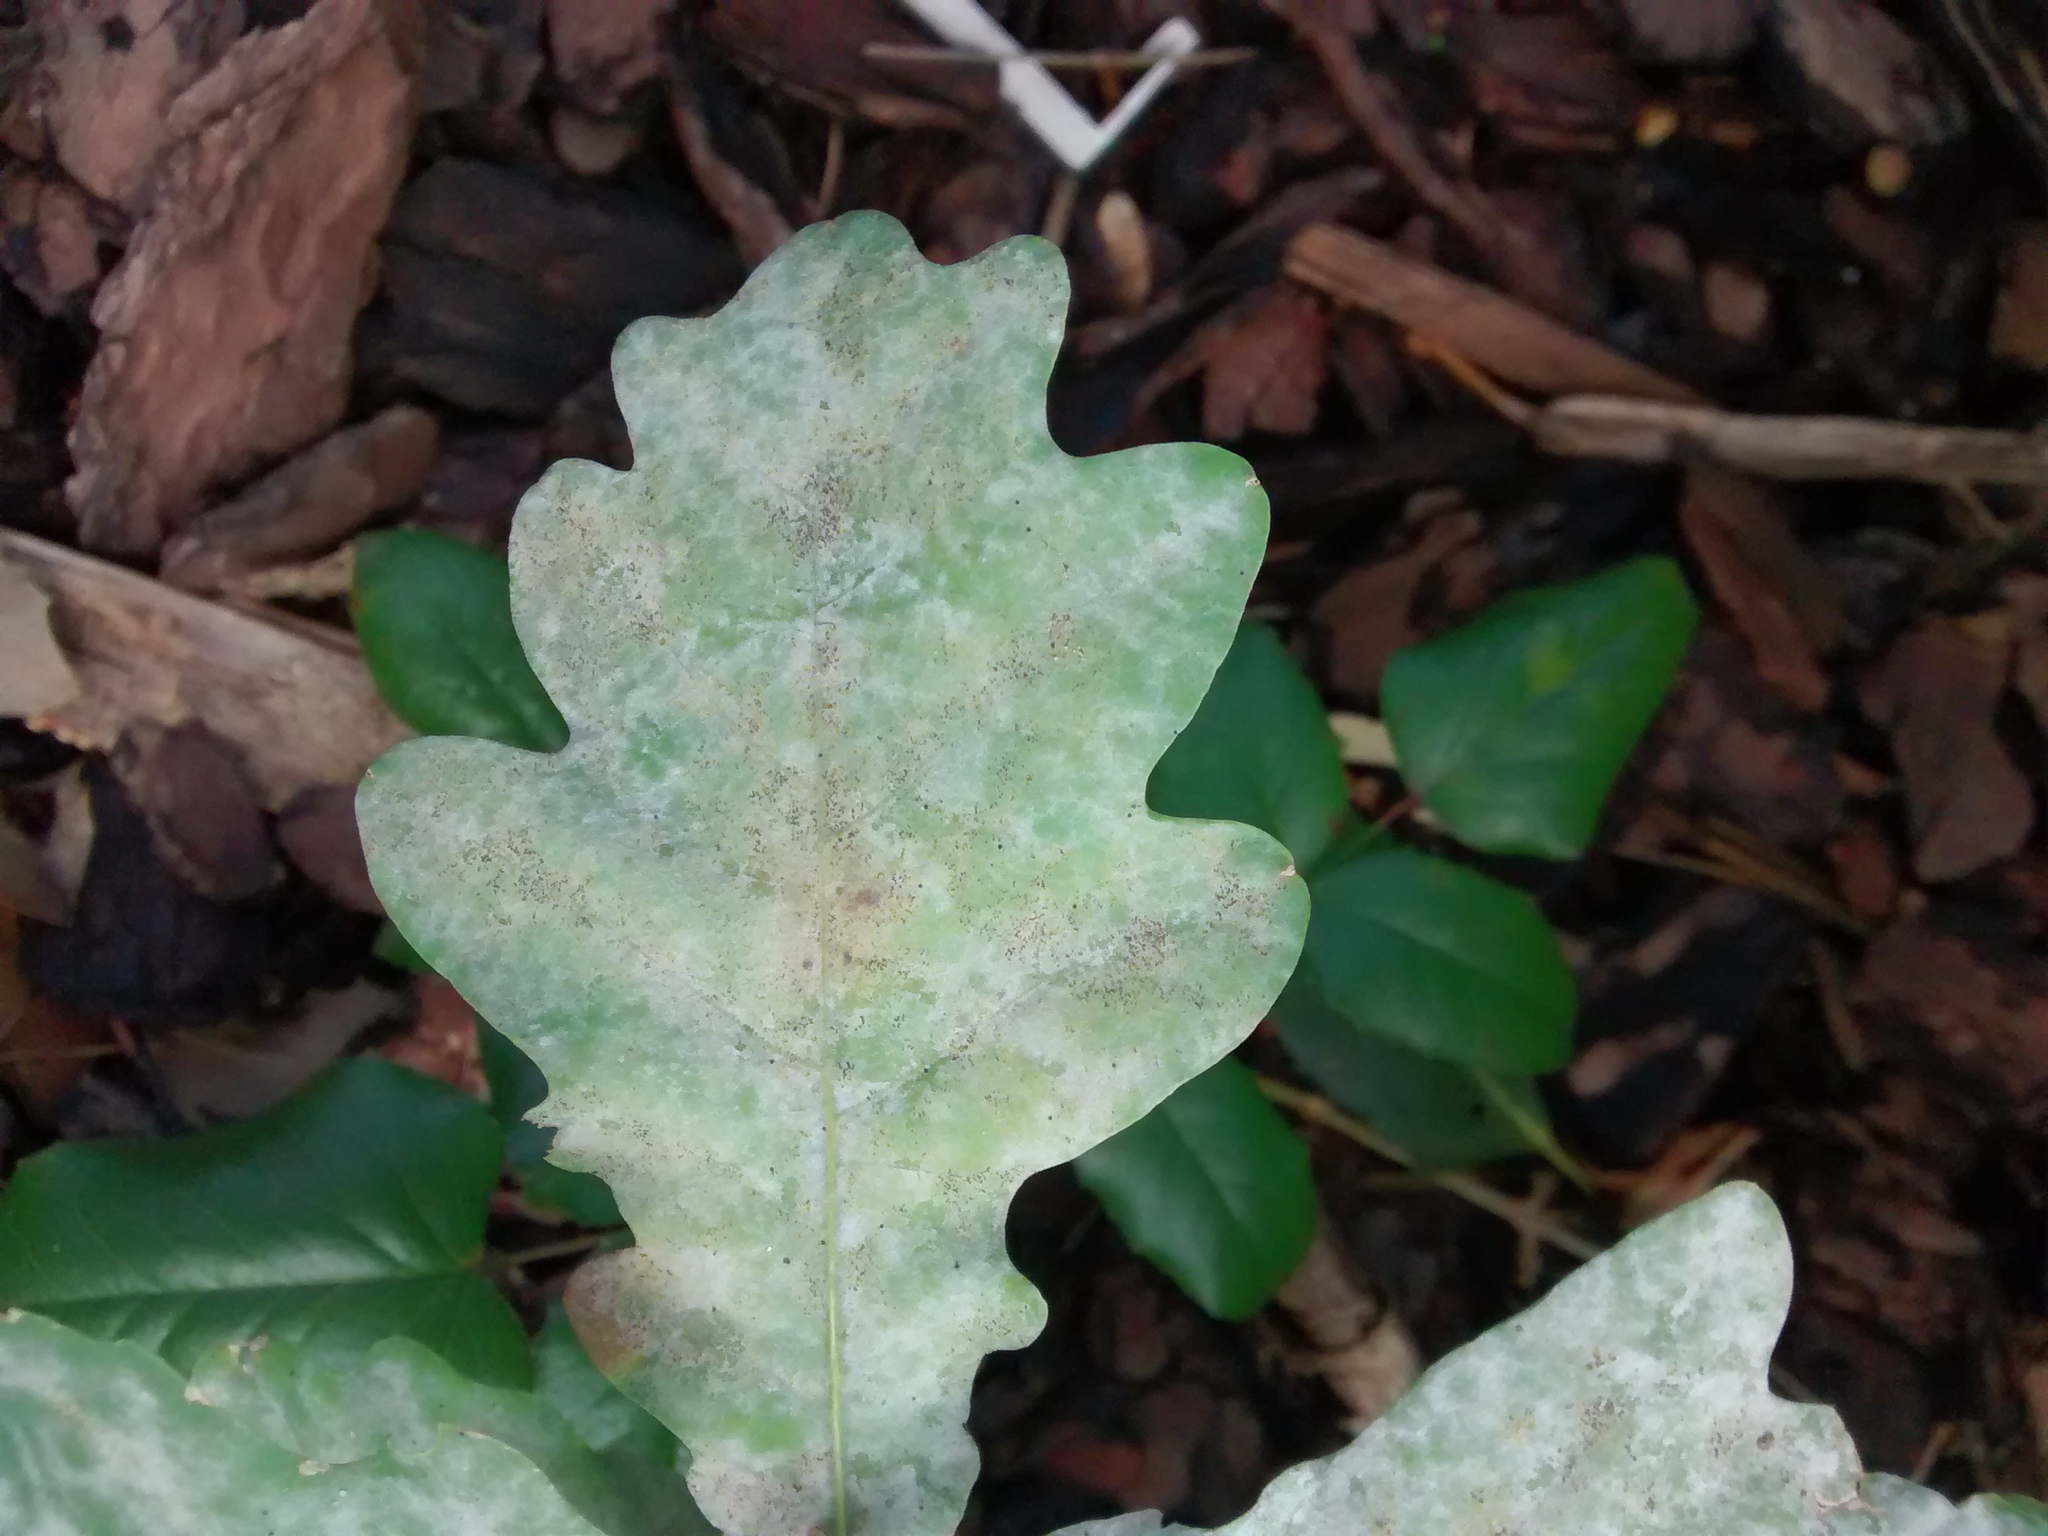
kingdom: Fungi
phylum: Ascomycota
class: Leotiomycetes
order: Helotiales
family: Erysiphaceae
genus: Erysiphe
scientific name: Erysiphe
